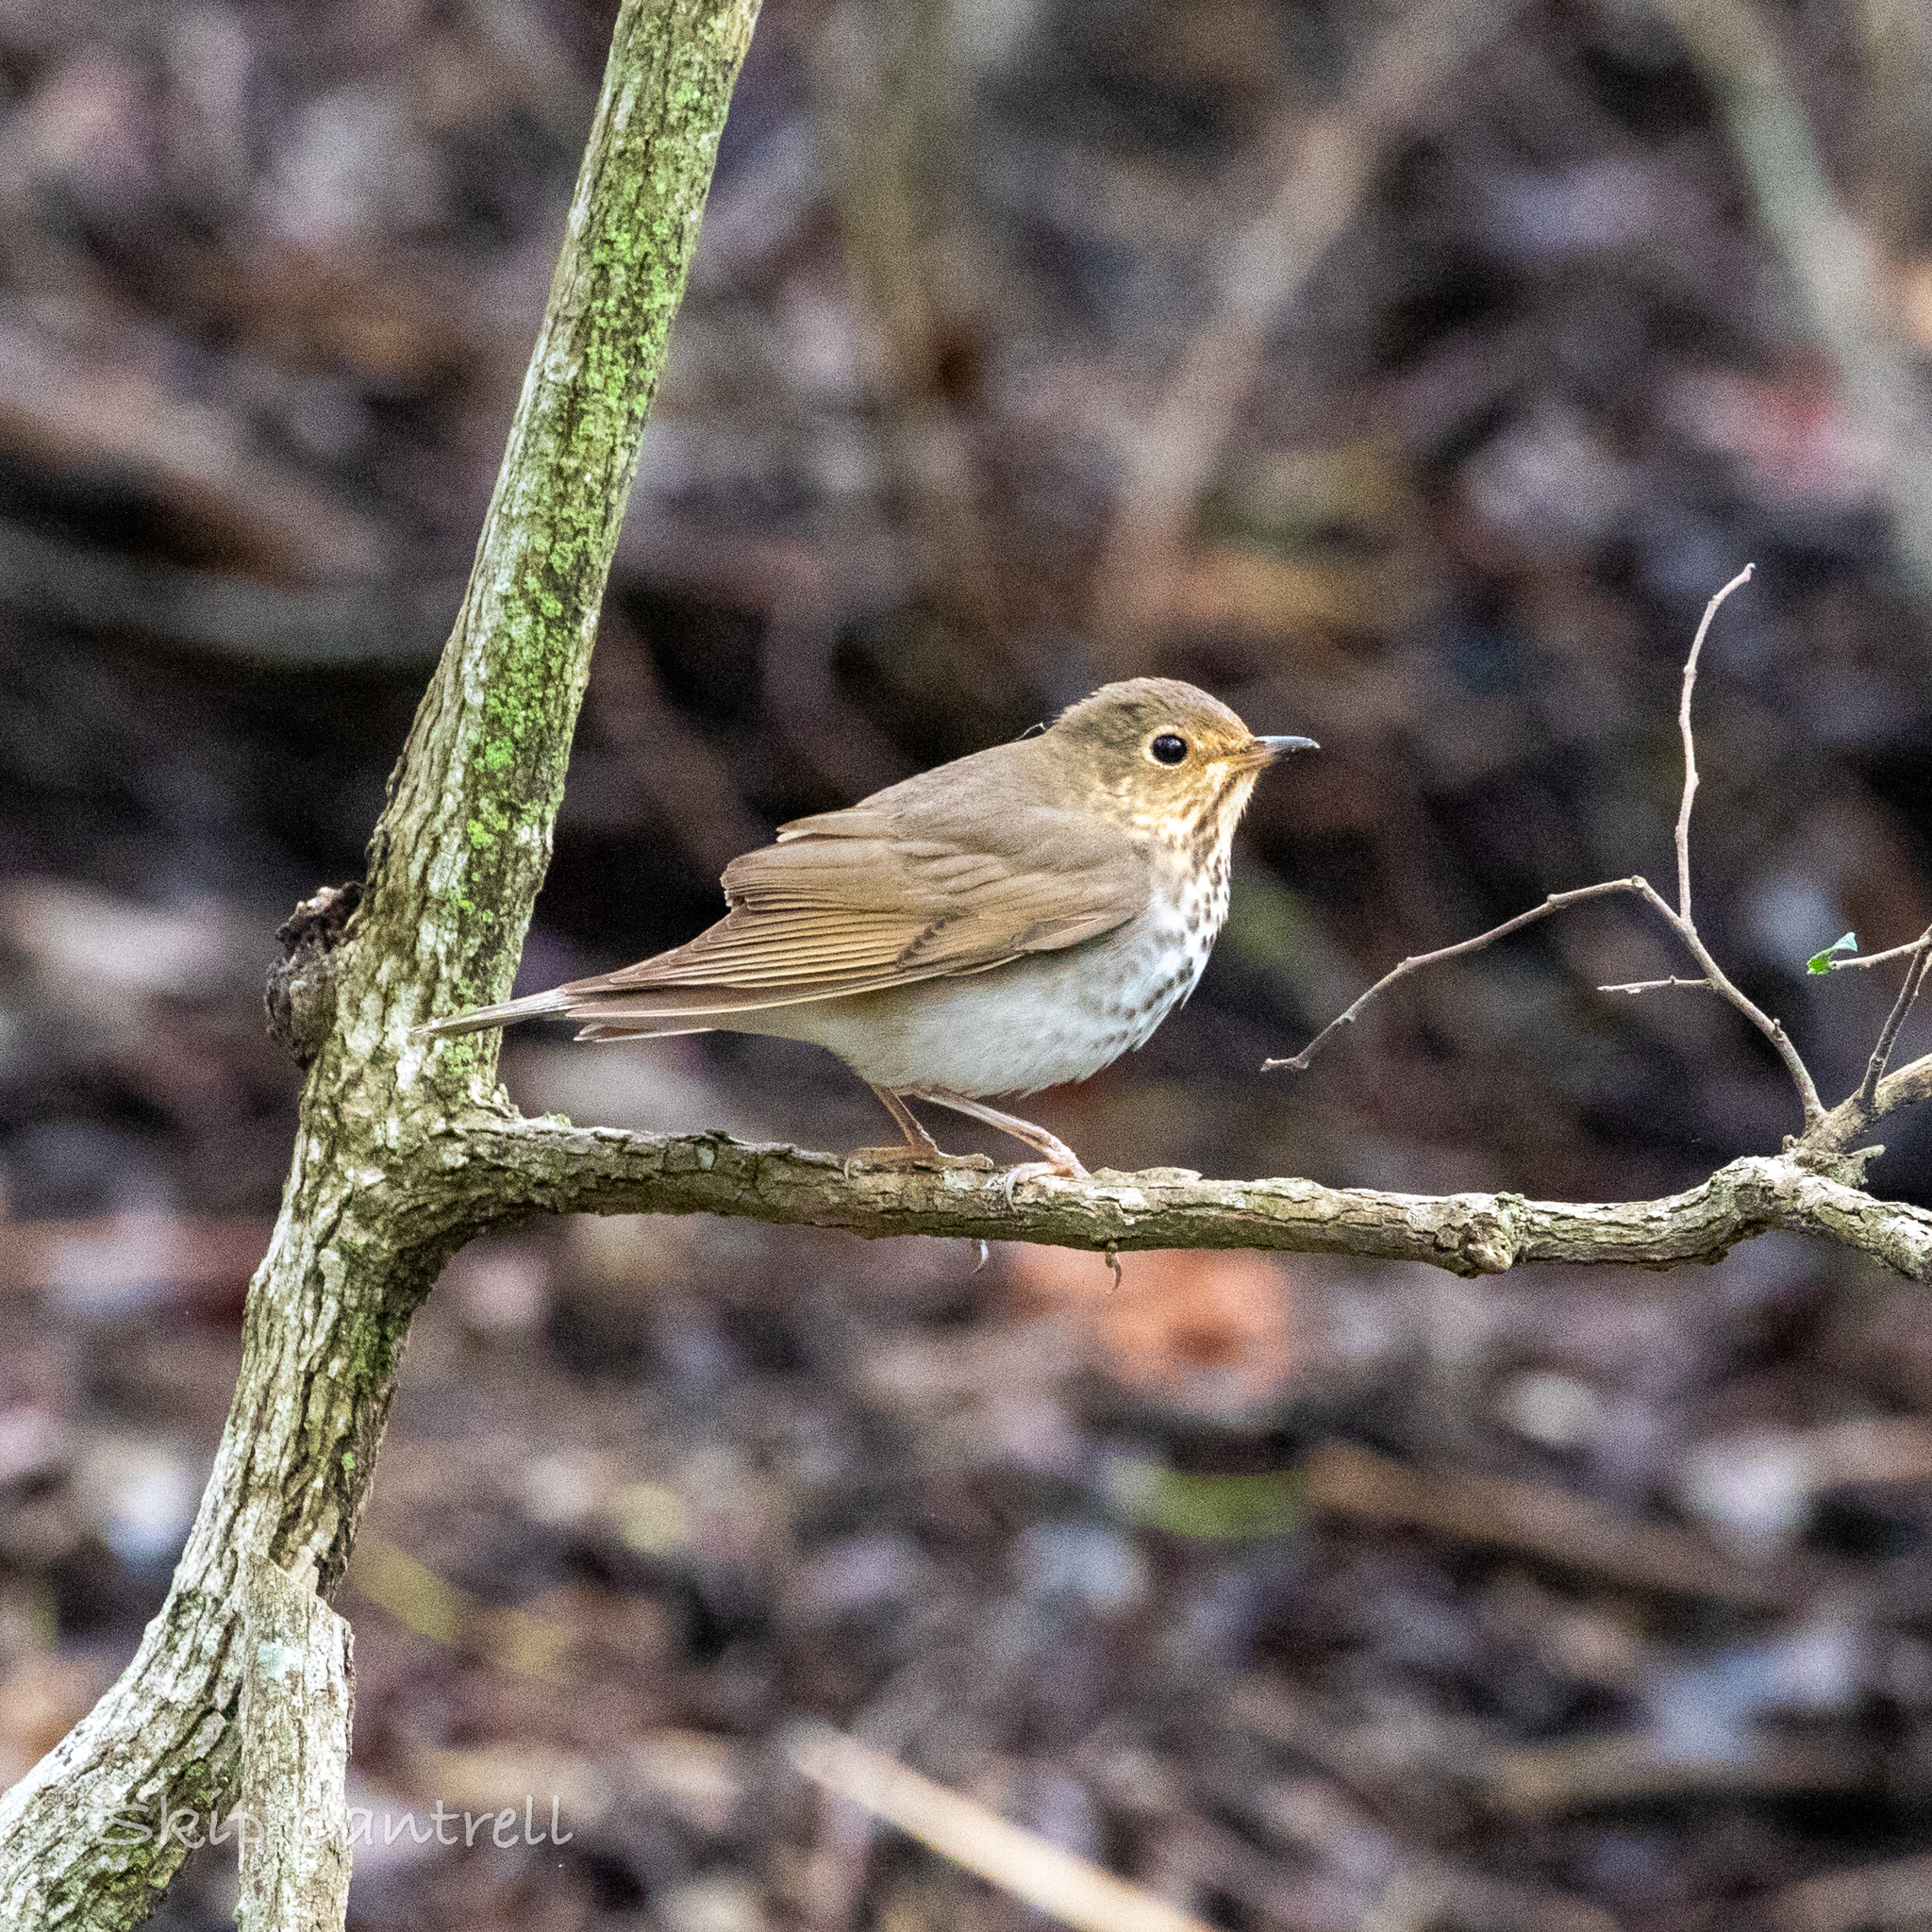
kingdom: Animalia
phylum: Chordata
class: Aves
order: Passeriformes
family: Turdidae
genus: Catharus
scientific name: Catharus ustulatus
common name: Swainson's thrush
